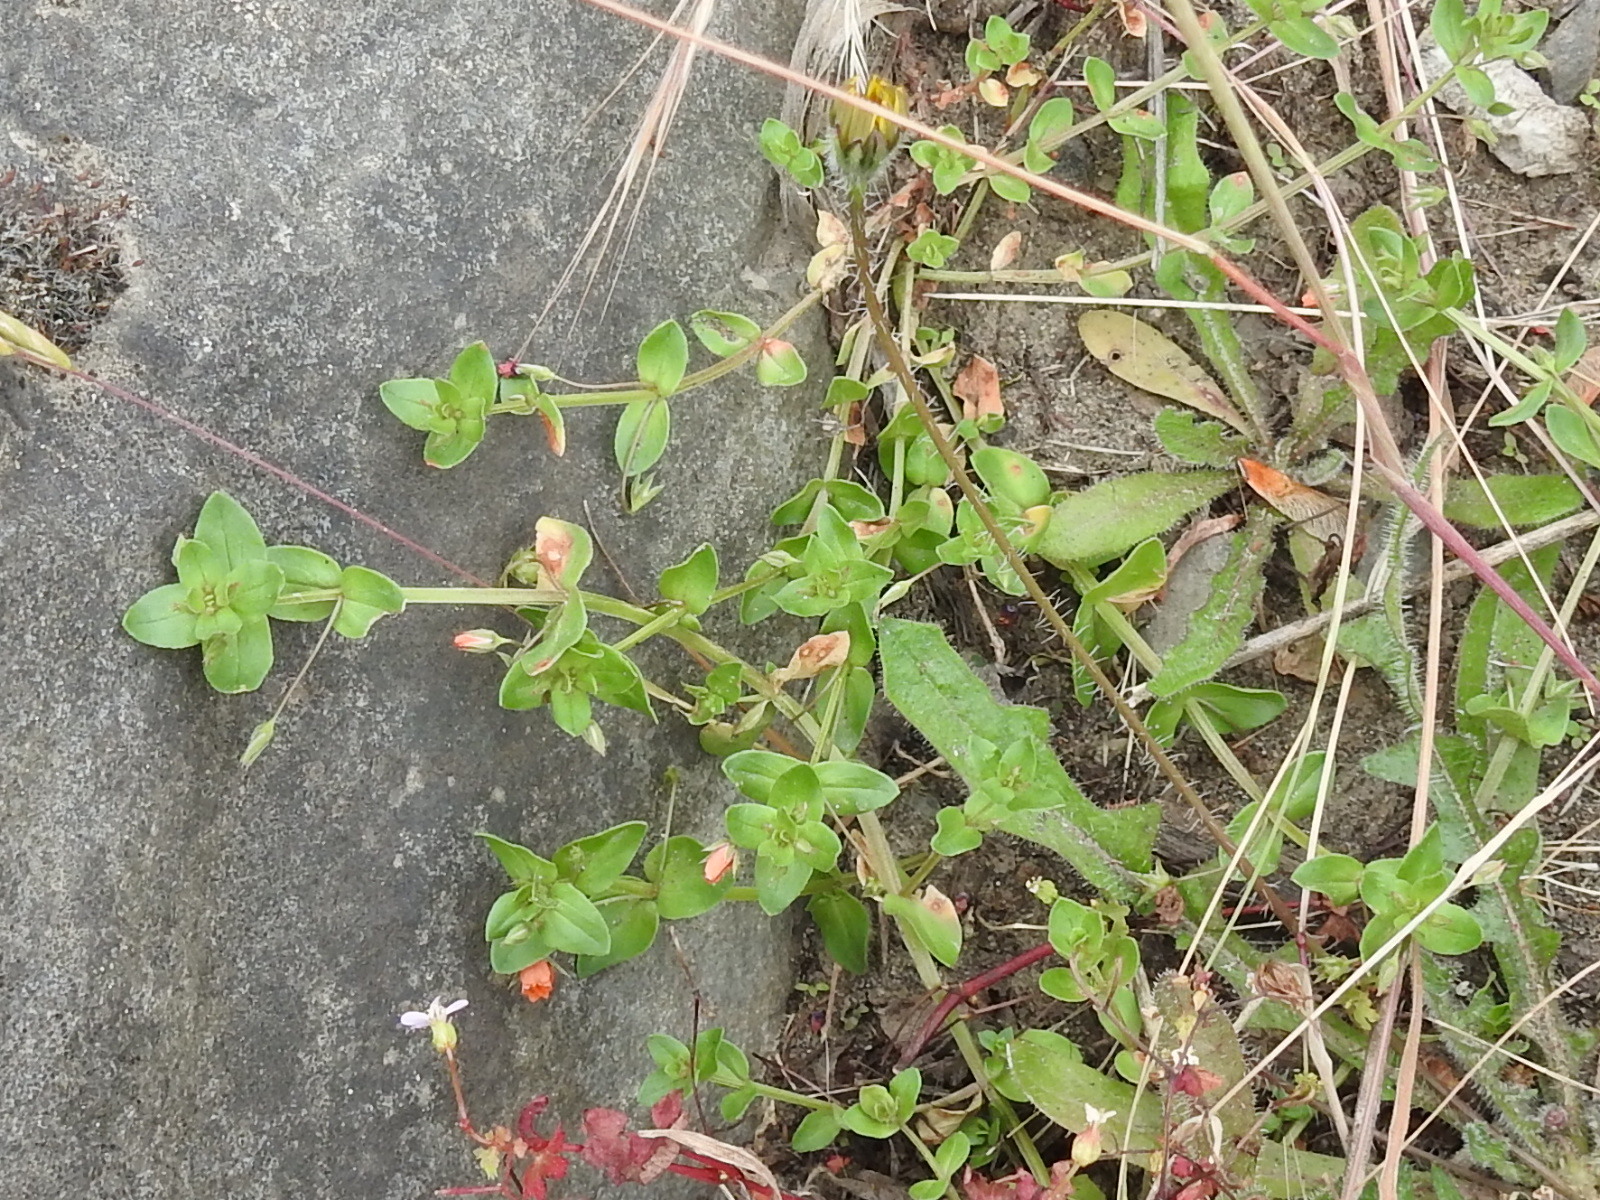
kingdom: Plantae
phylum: Tracheophyta
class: Magnoliopsida
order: Ericales
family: Primulaceae
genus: Lysimachia
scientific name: Lysimachia arvensis
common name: Scarlet pimpernel
